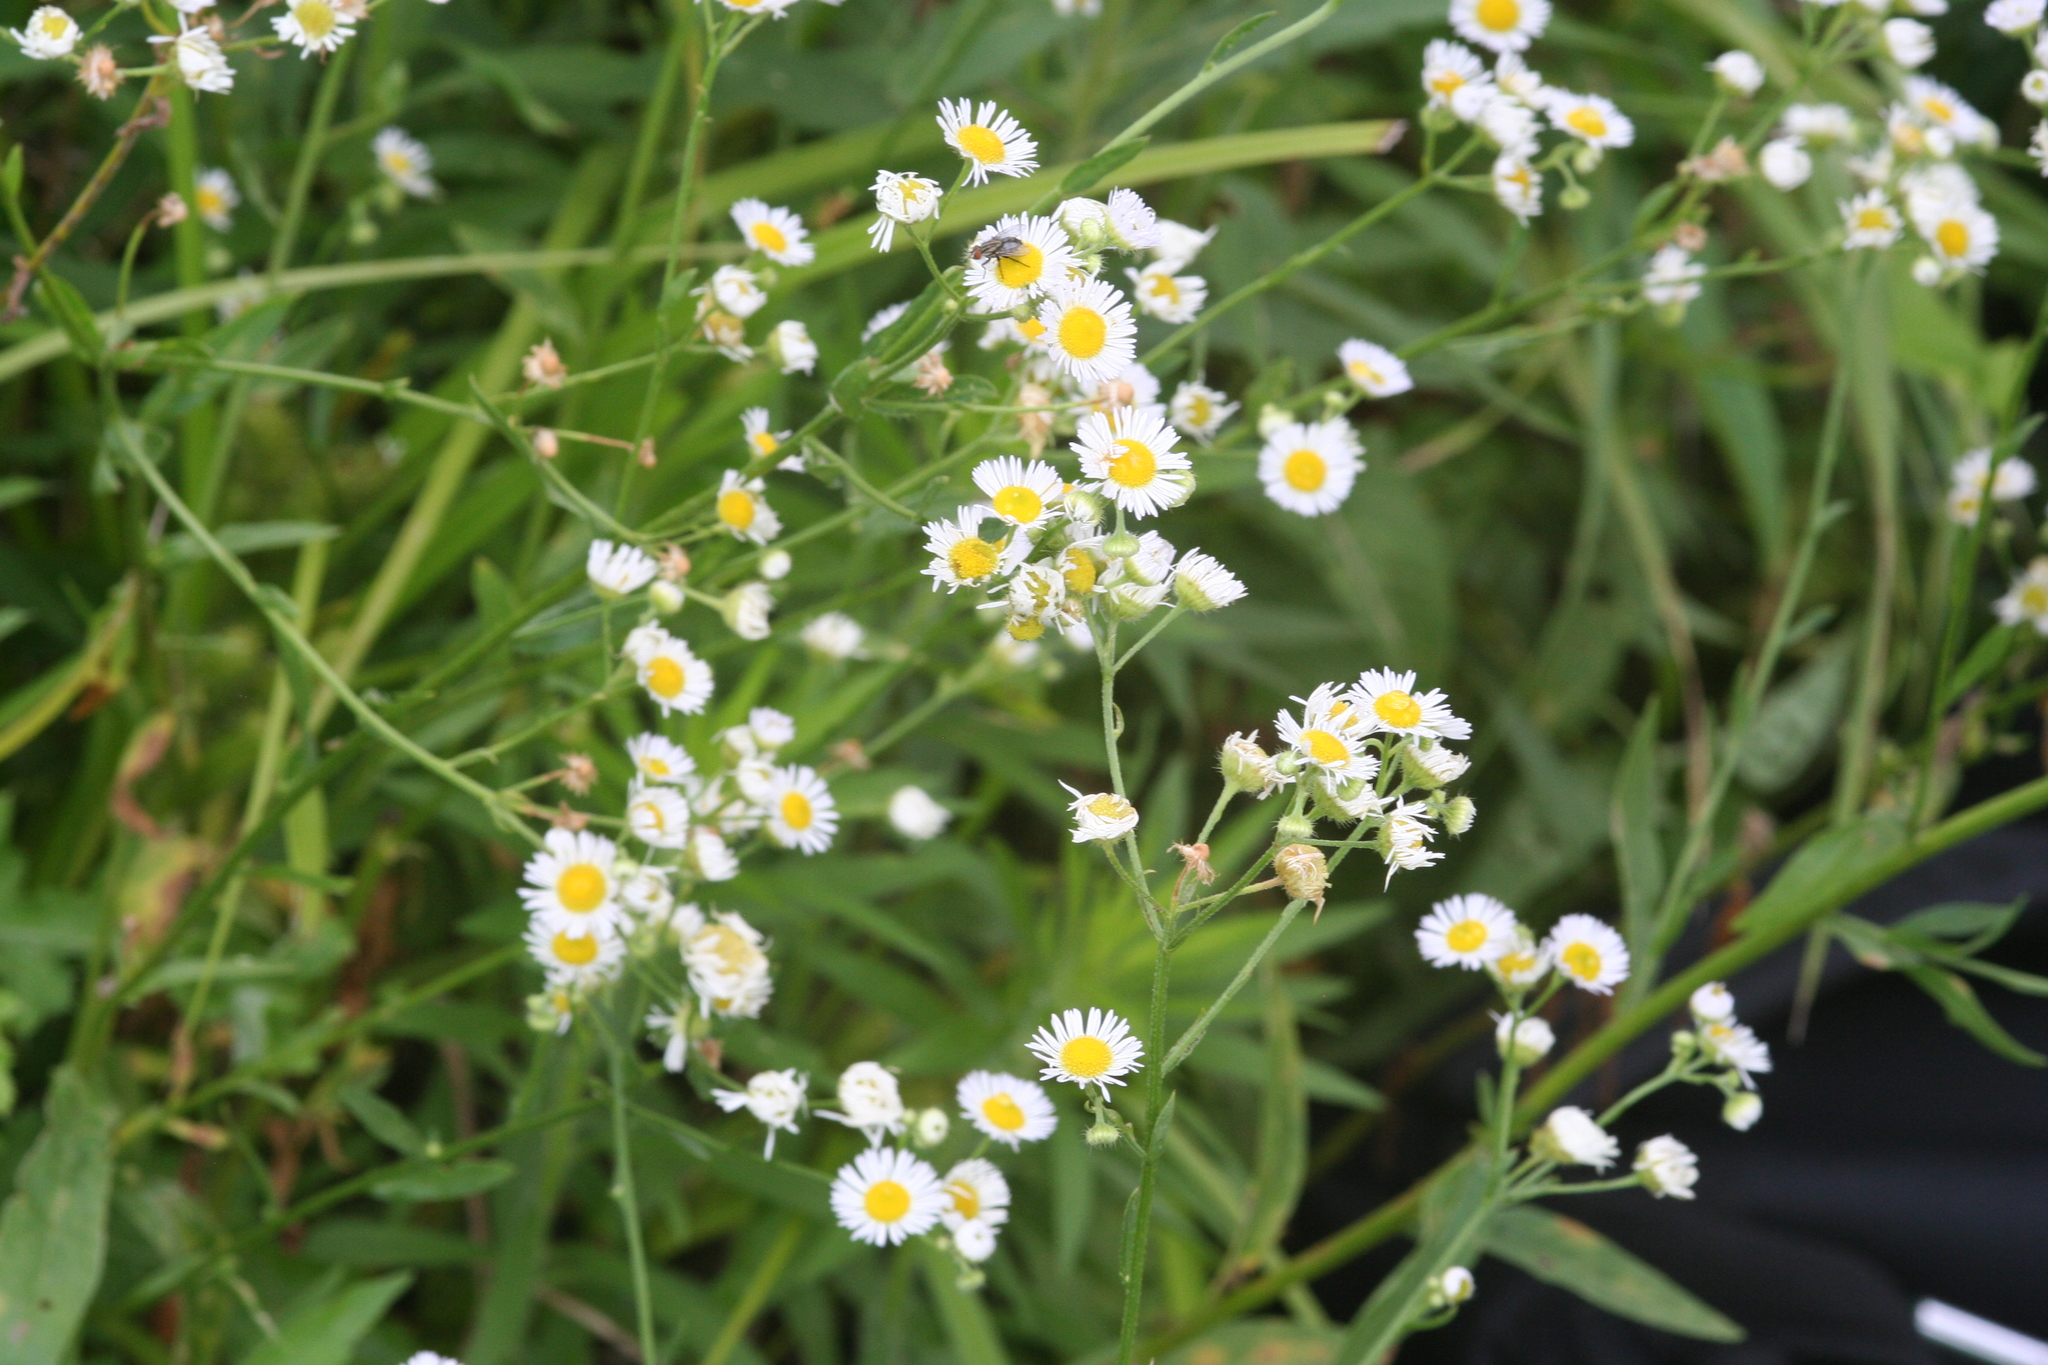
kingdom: Plantae
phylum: Tracheophyta
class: Magnoliopsida
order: Asterales
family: Asteraceae
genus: Erigeron
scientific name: Erigeron strigosus
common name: Common eastern fleabane
